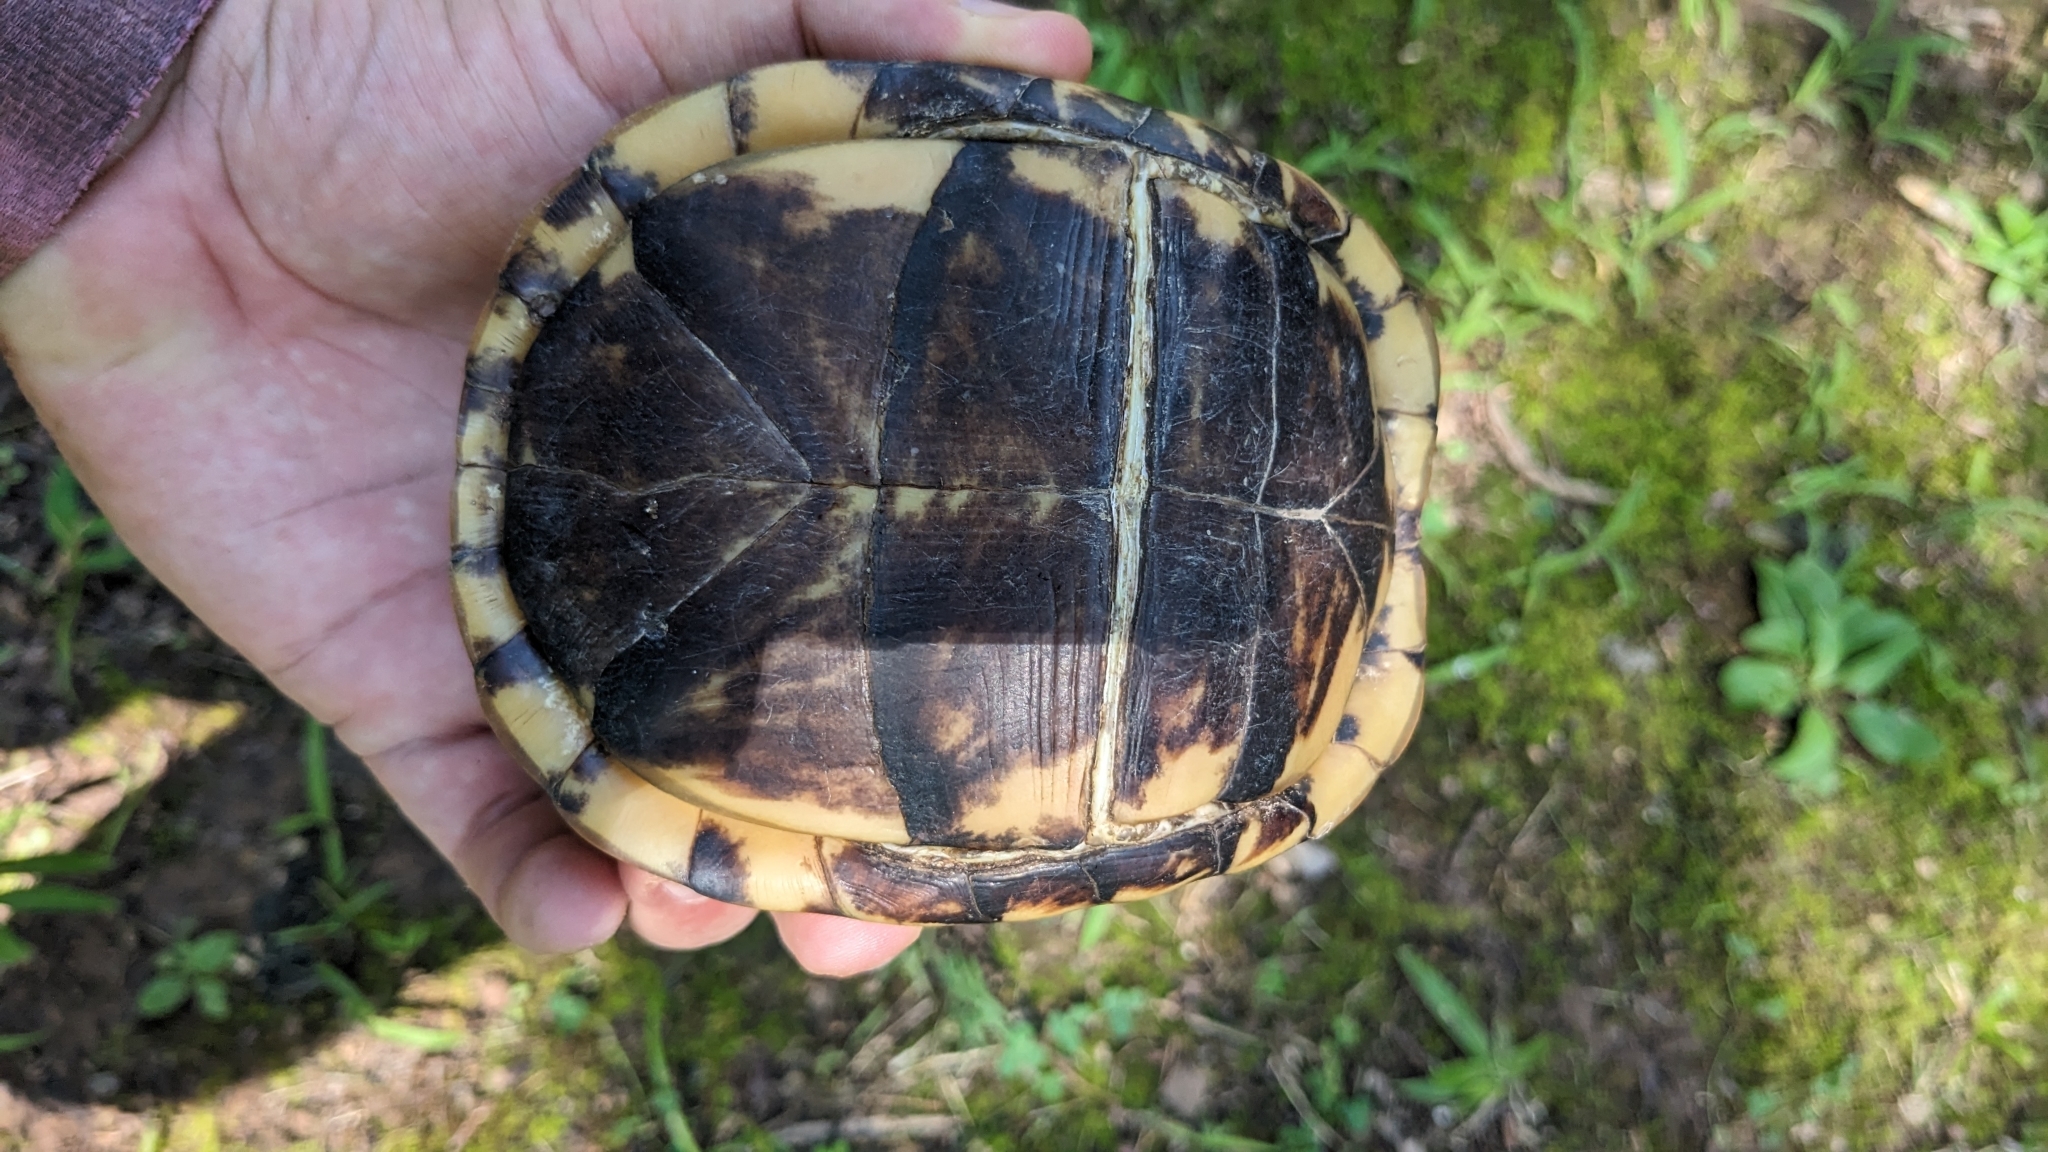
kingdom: Animalia
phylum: Chordata
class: Testudines
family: Emydidae
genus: Terrapene
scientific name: Terrapene carolina
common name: Common box turtle
